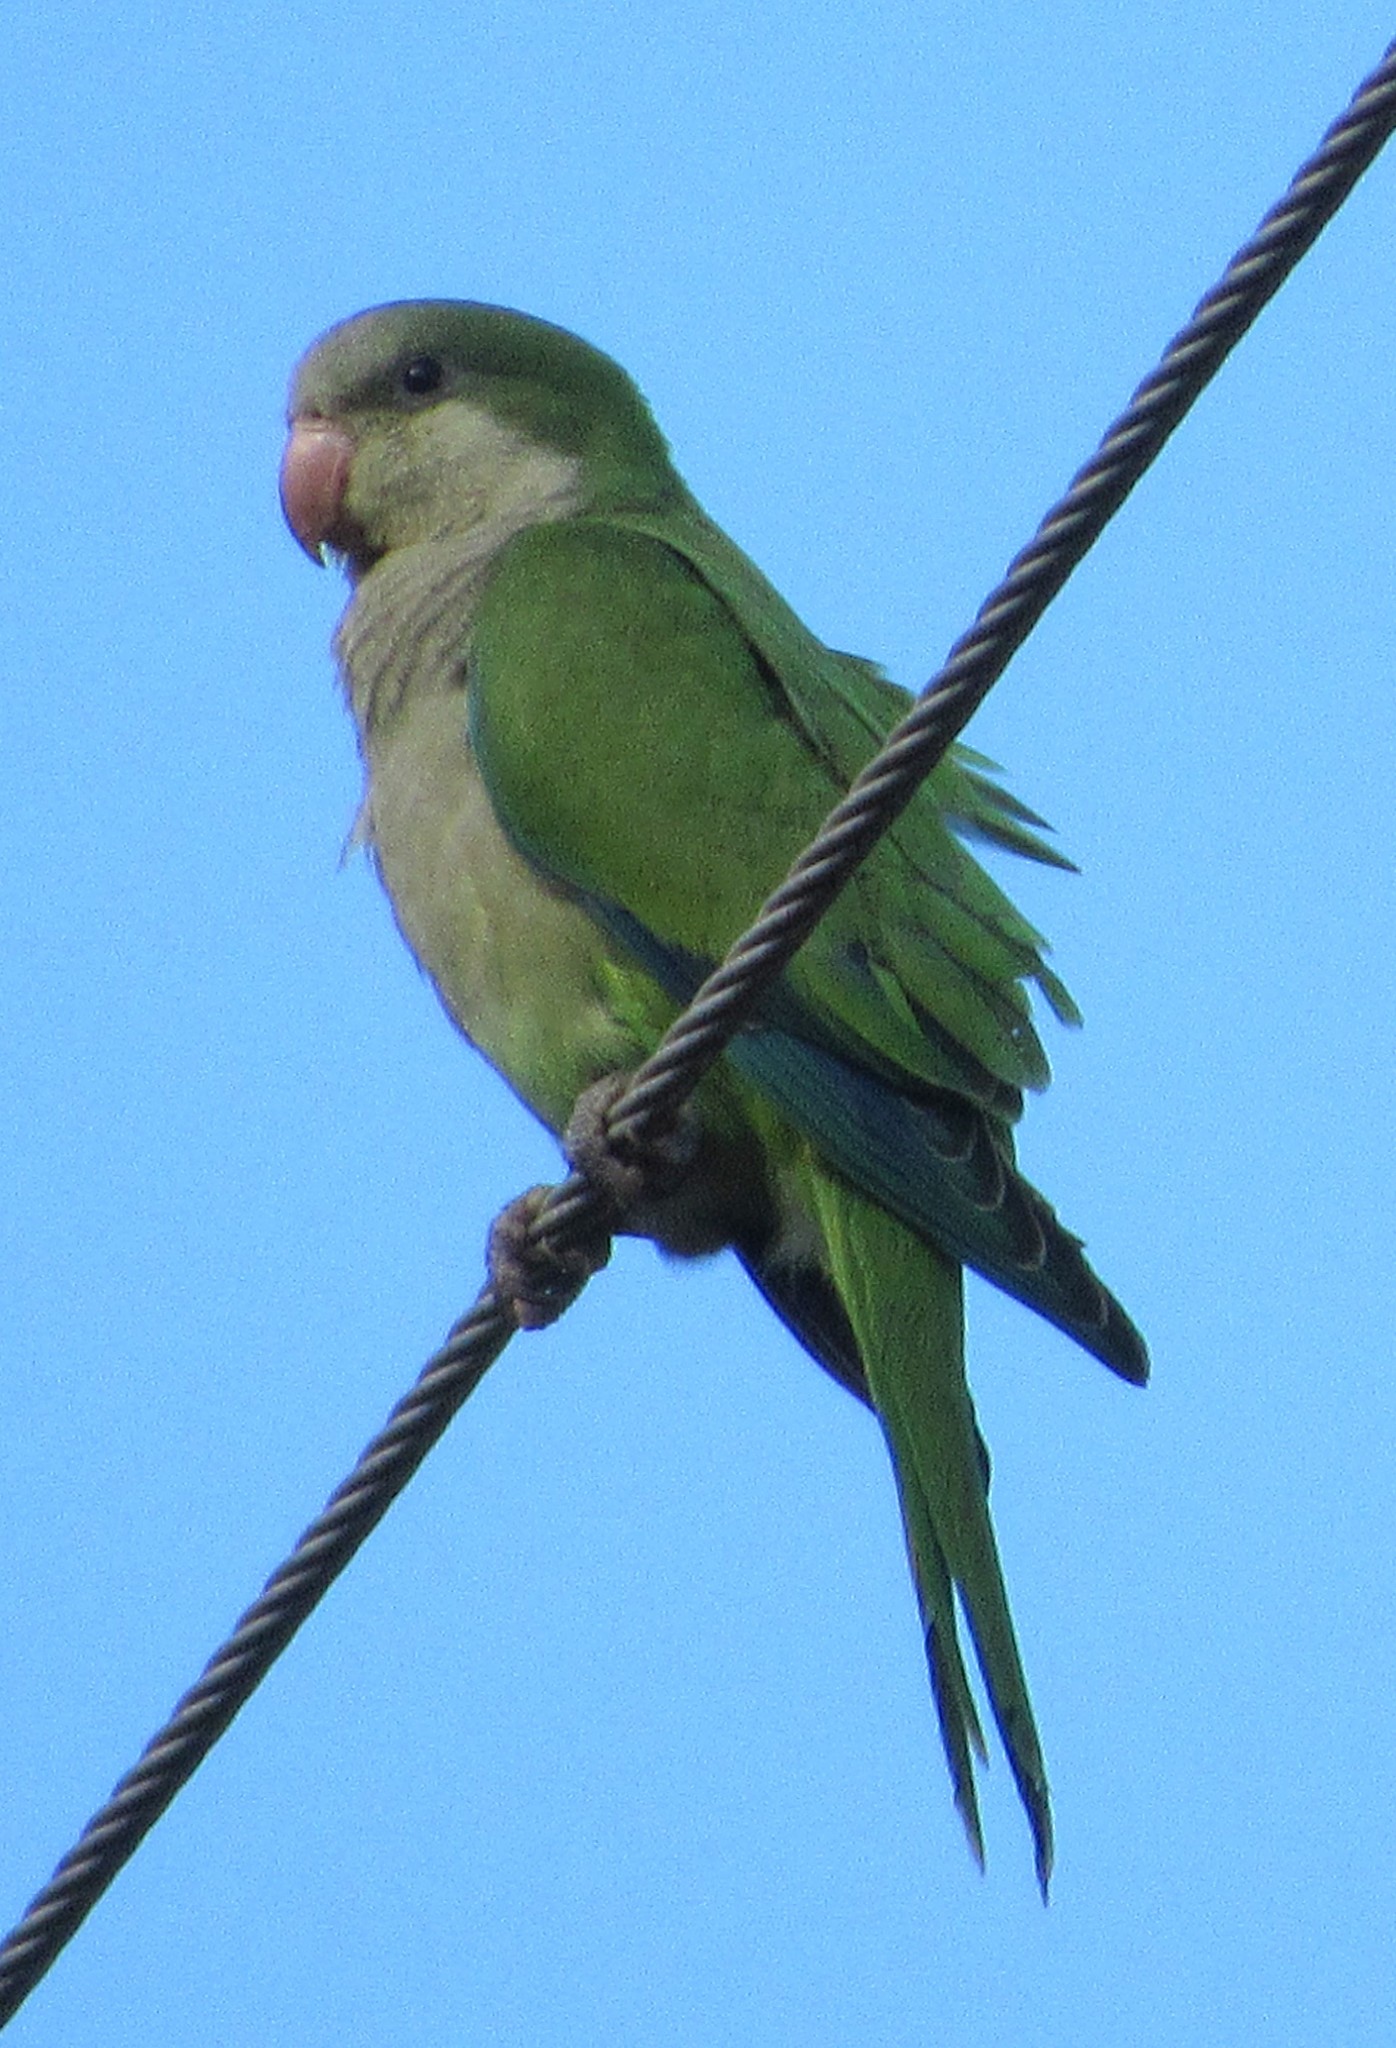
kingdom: Animalia
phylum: Chordata
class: Aves
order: Psittaciformes
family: Psittacidae
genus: Myiopsitta
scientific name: Myiopsitta monachus
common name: Monk parakeet
